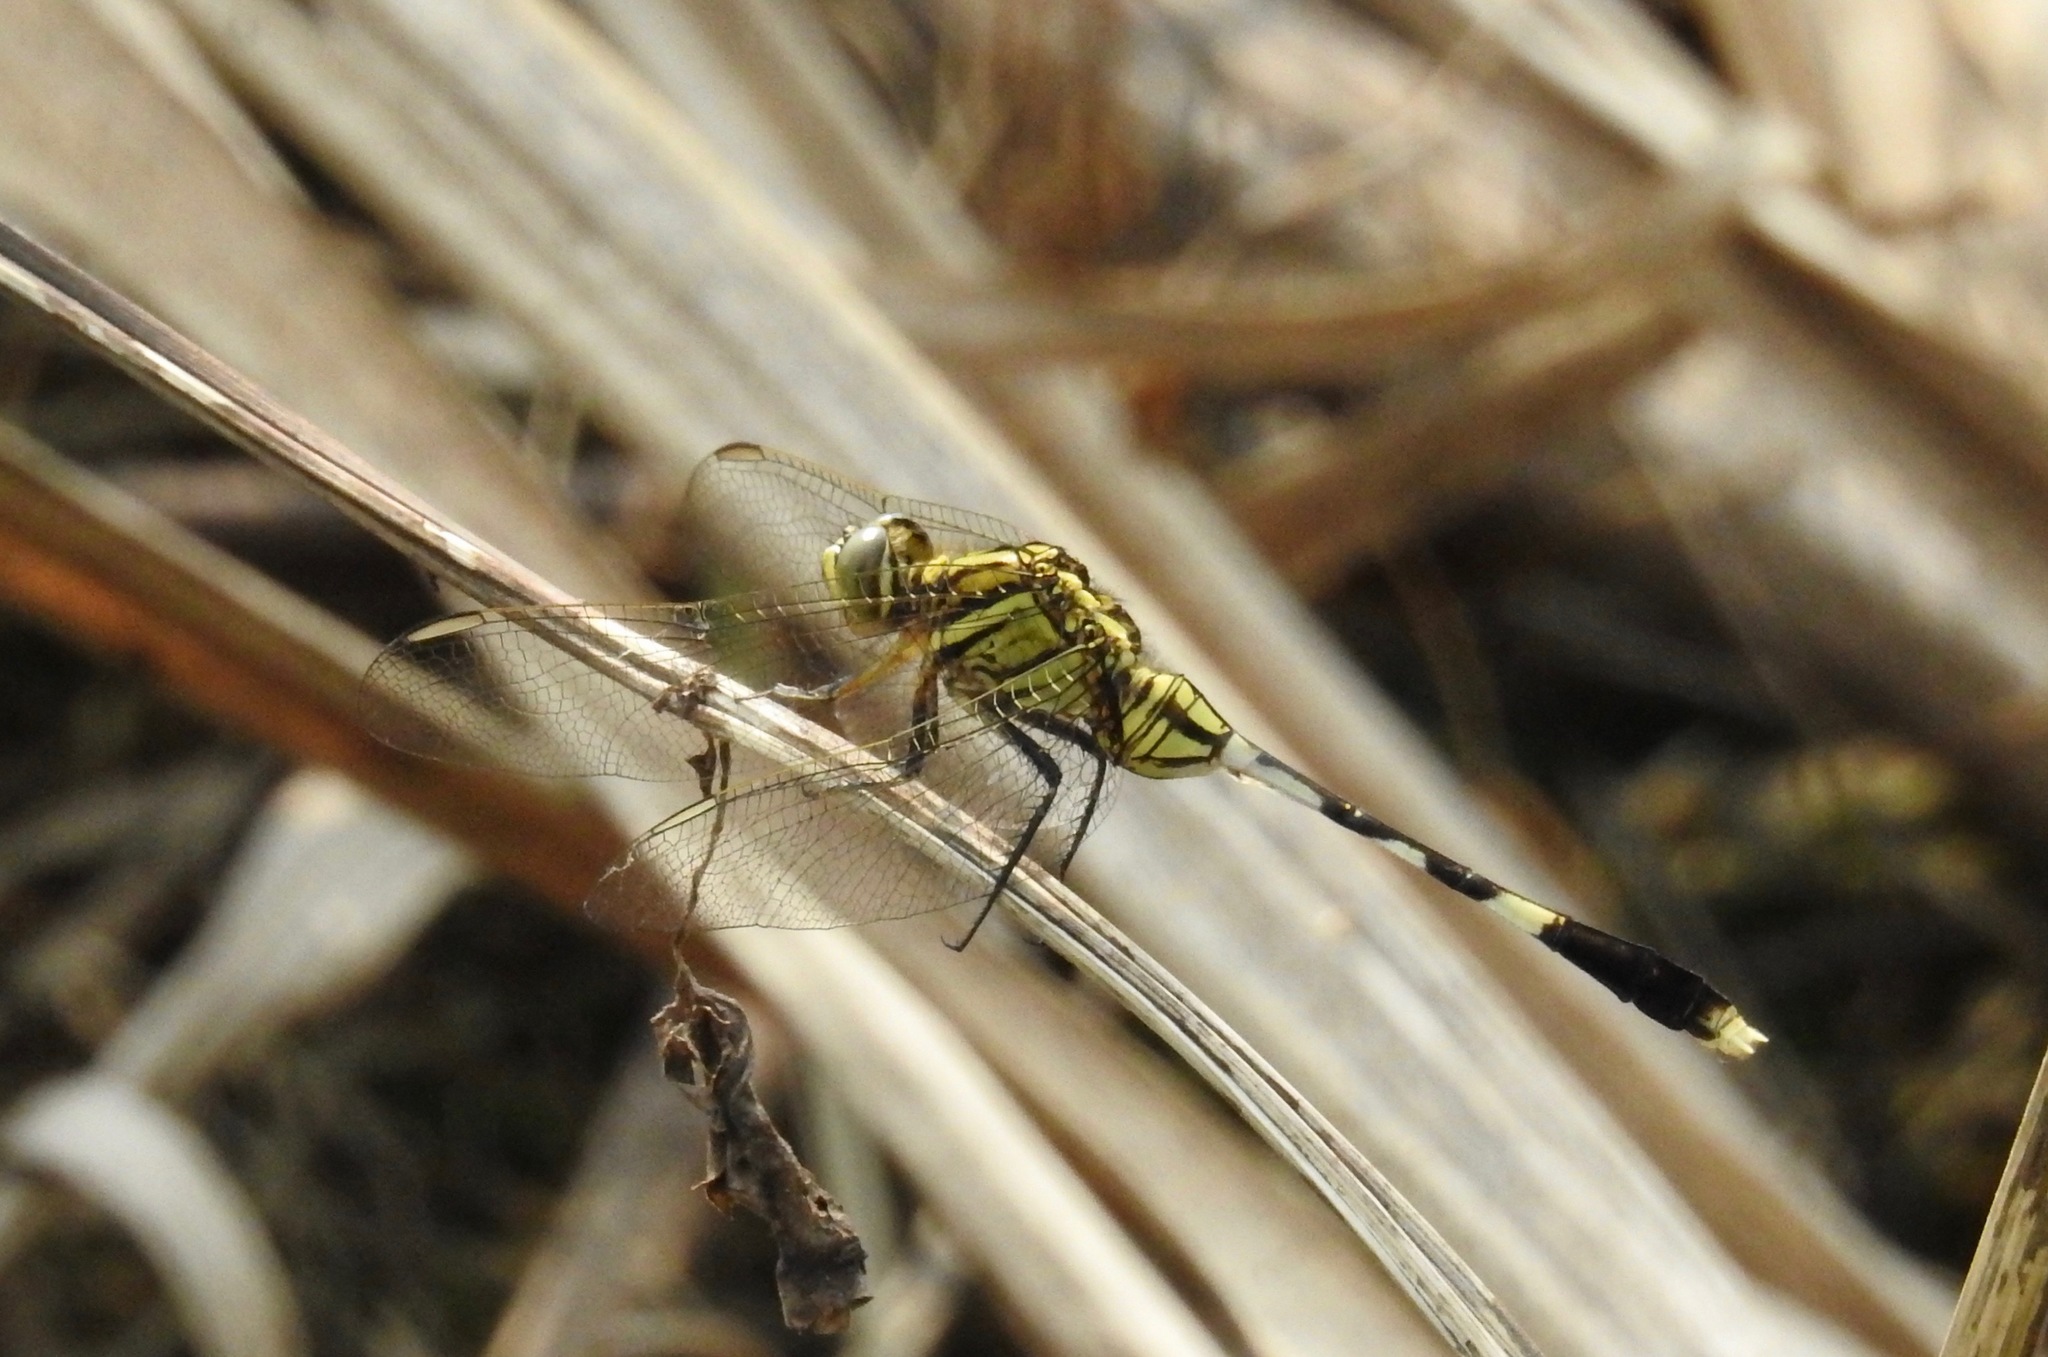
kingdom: Animalia
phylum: Arthropoda
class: Insecta
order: Odonata
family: Libellulidae
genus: Orthetrum
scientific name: Orthetrum sabina
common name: Slender skimmer
